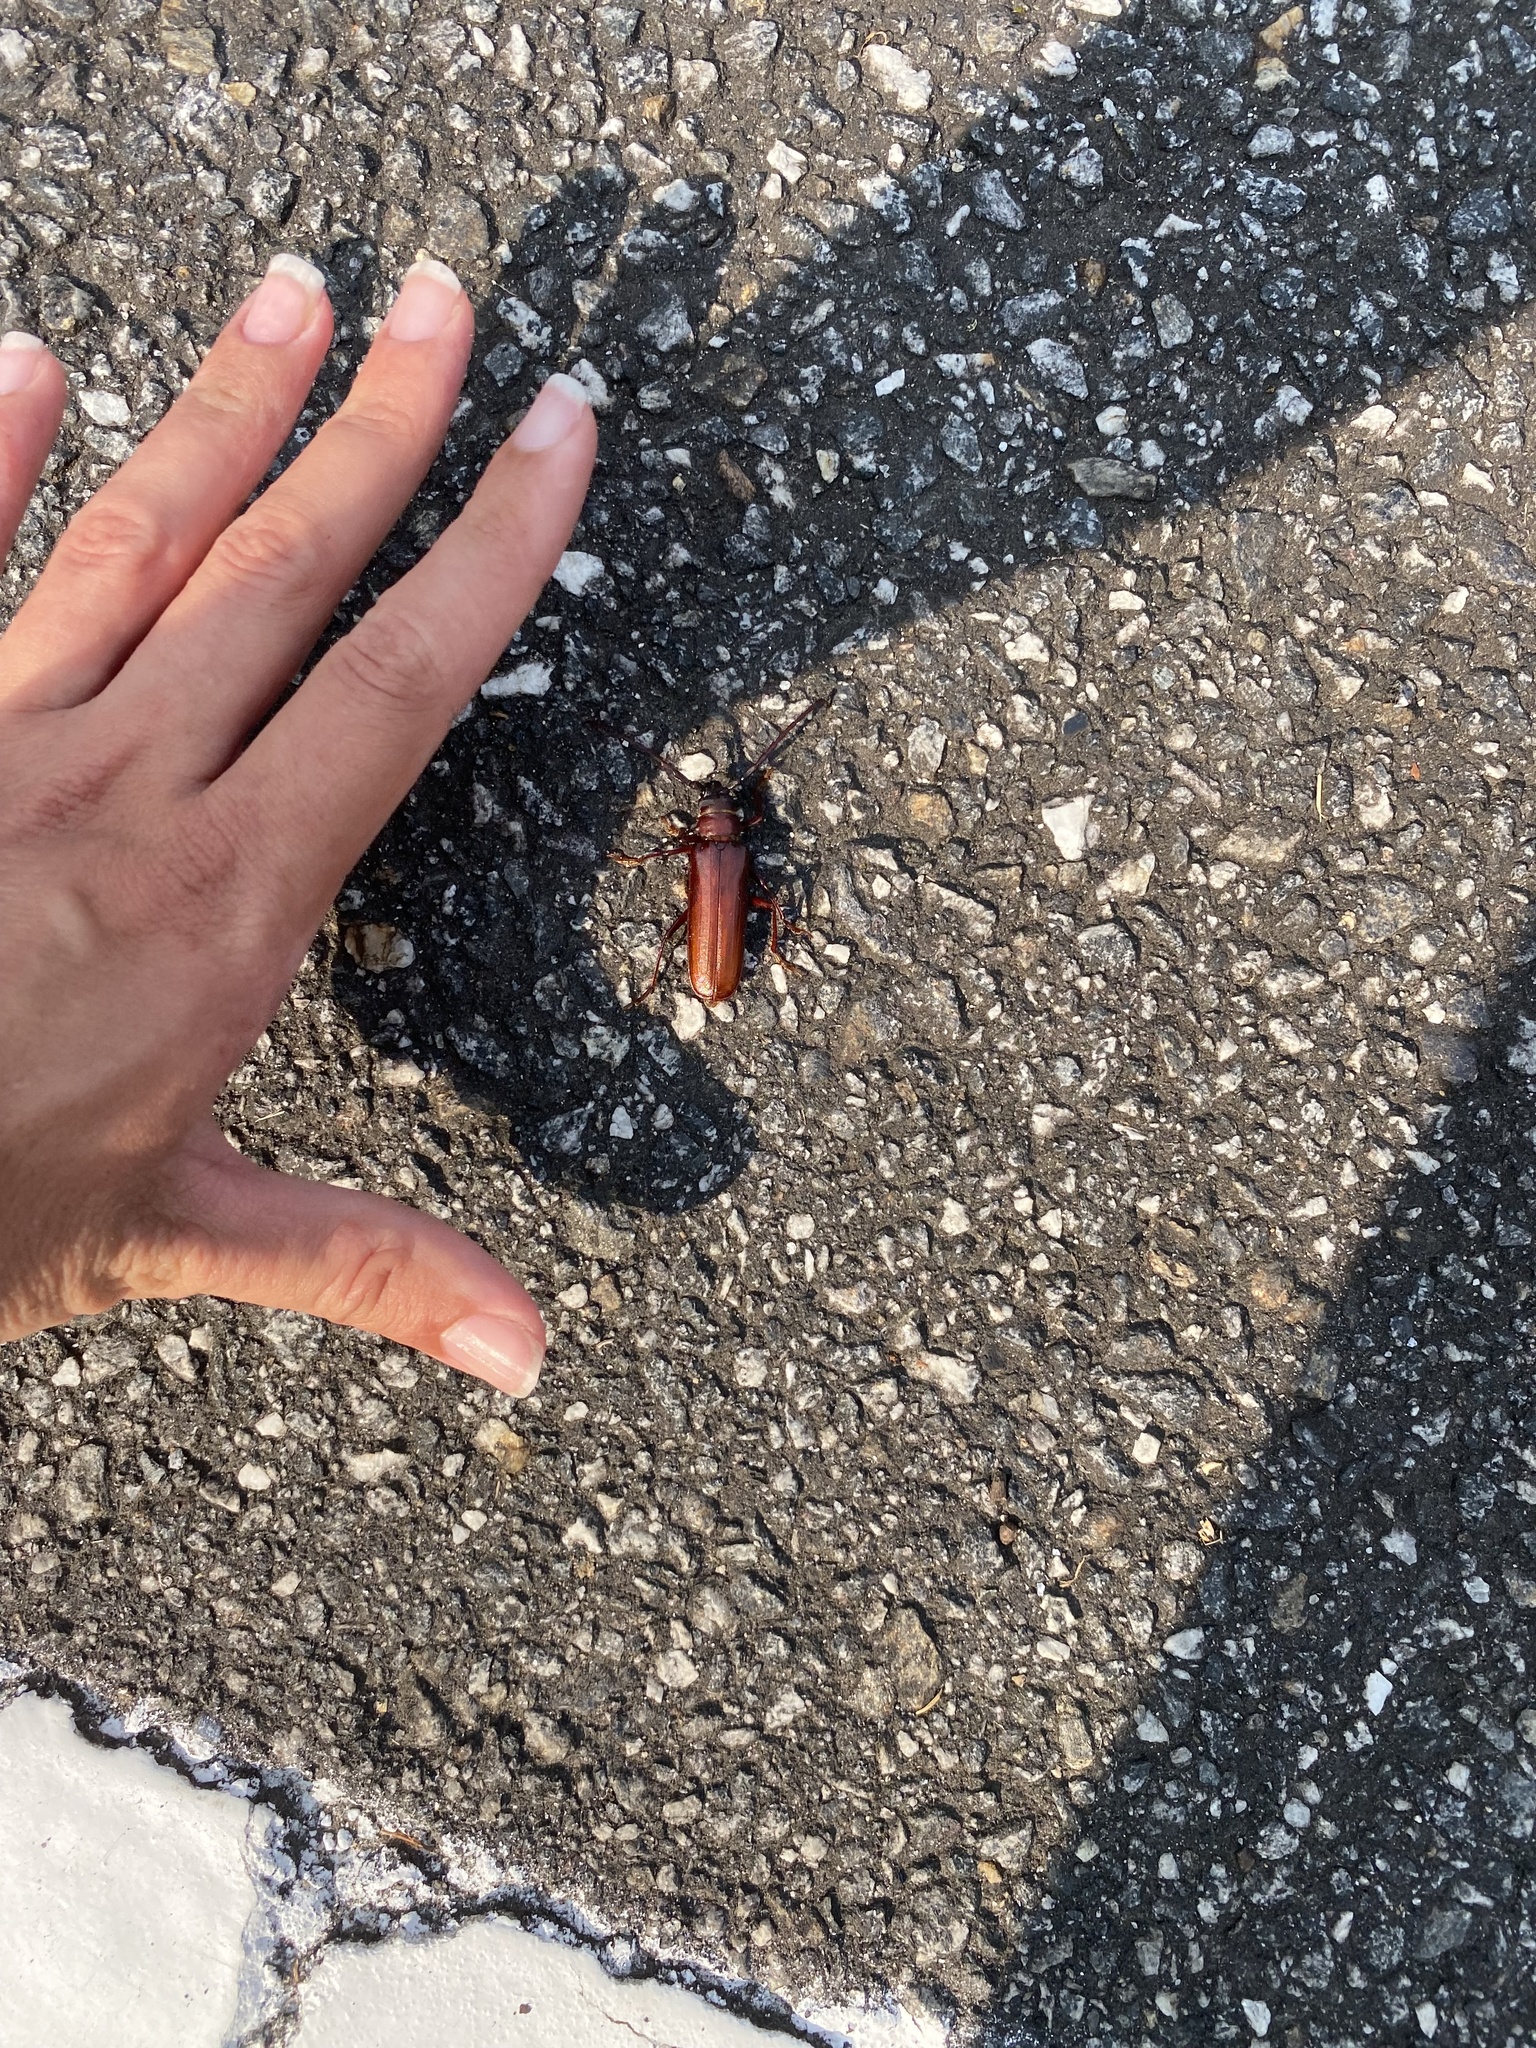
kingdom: Animalia
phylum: Arthropoda
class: Insecta
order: Coleoptera
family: Cerambycidae
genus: Orthosoma
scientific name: Orthosoma brunneum
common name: Brown prionid beetle
